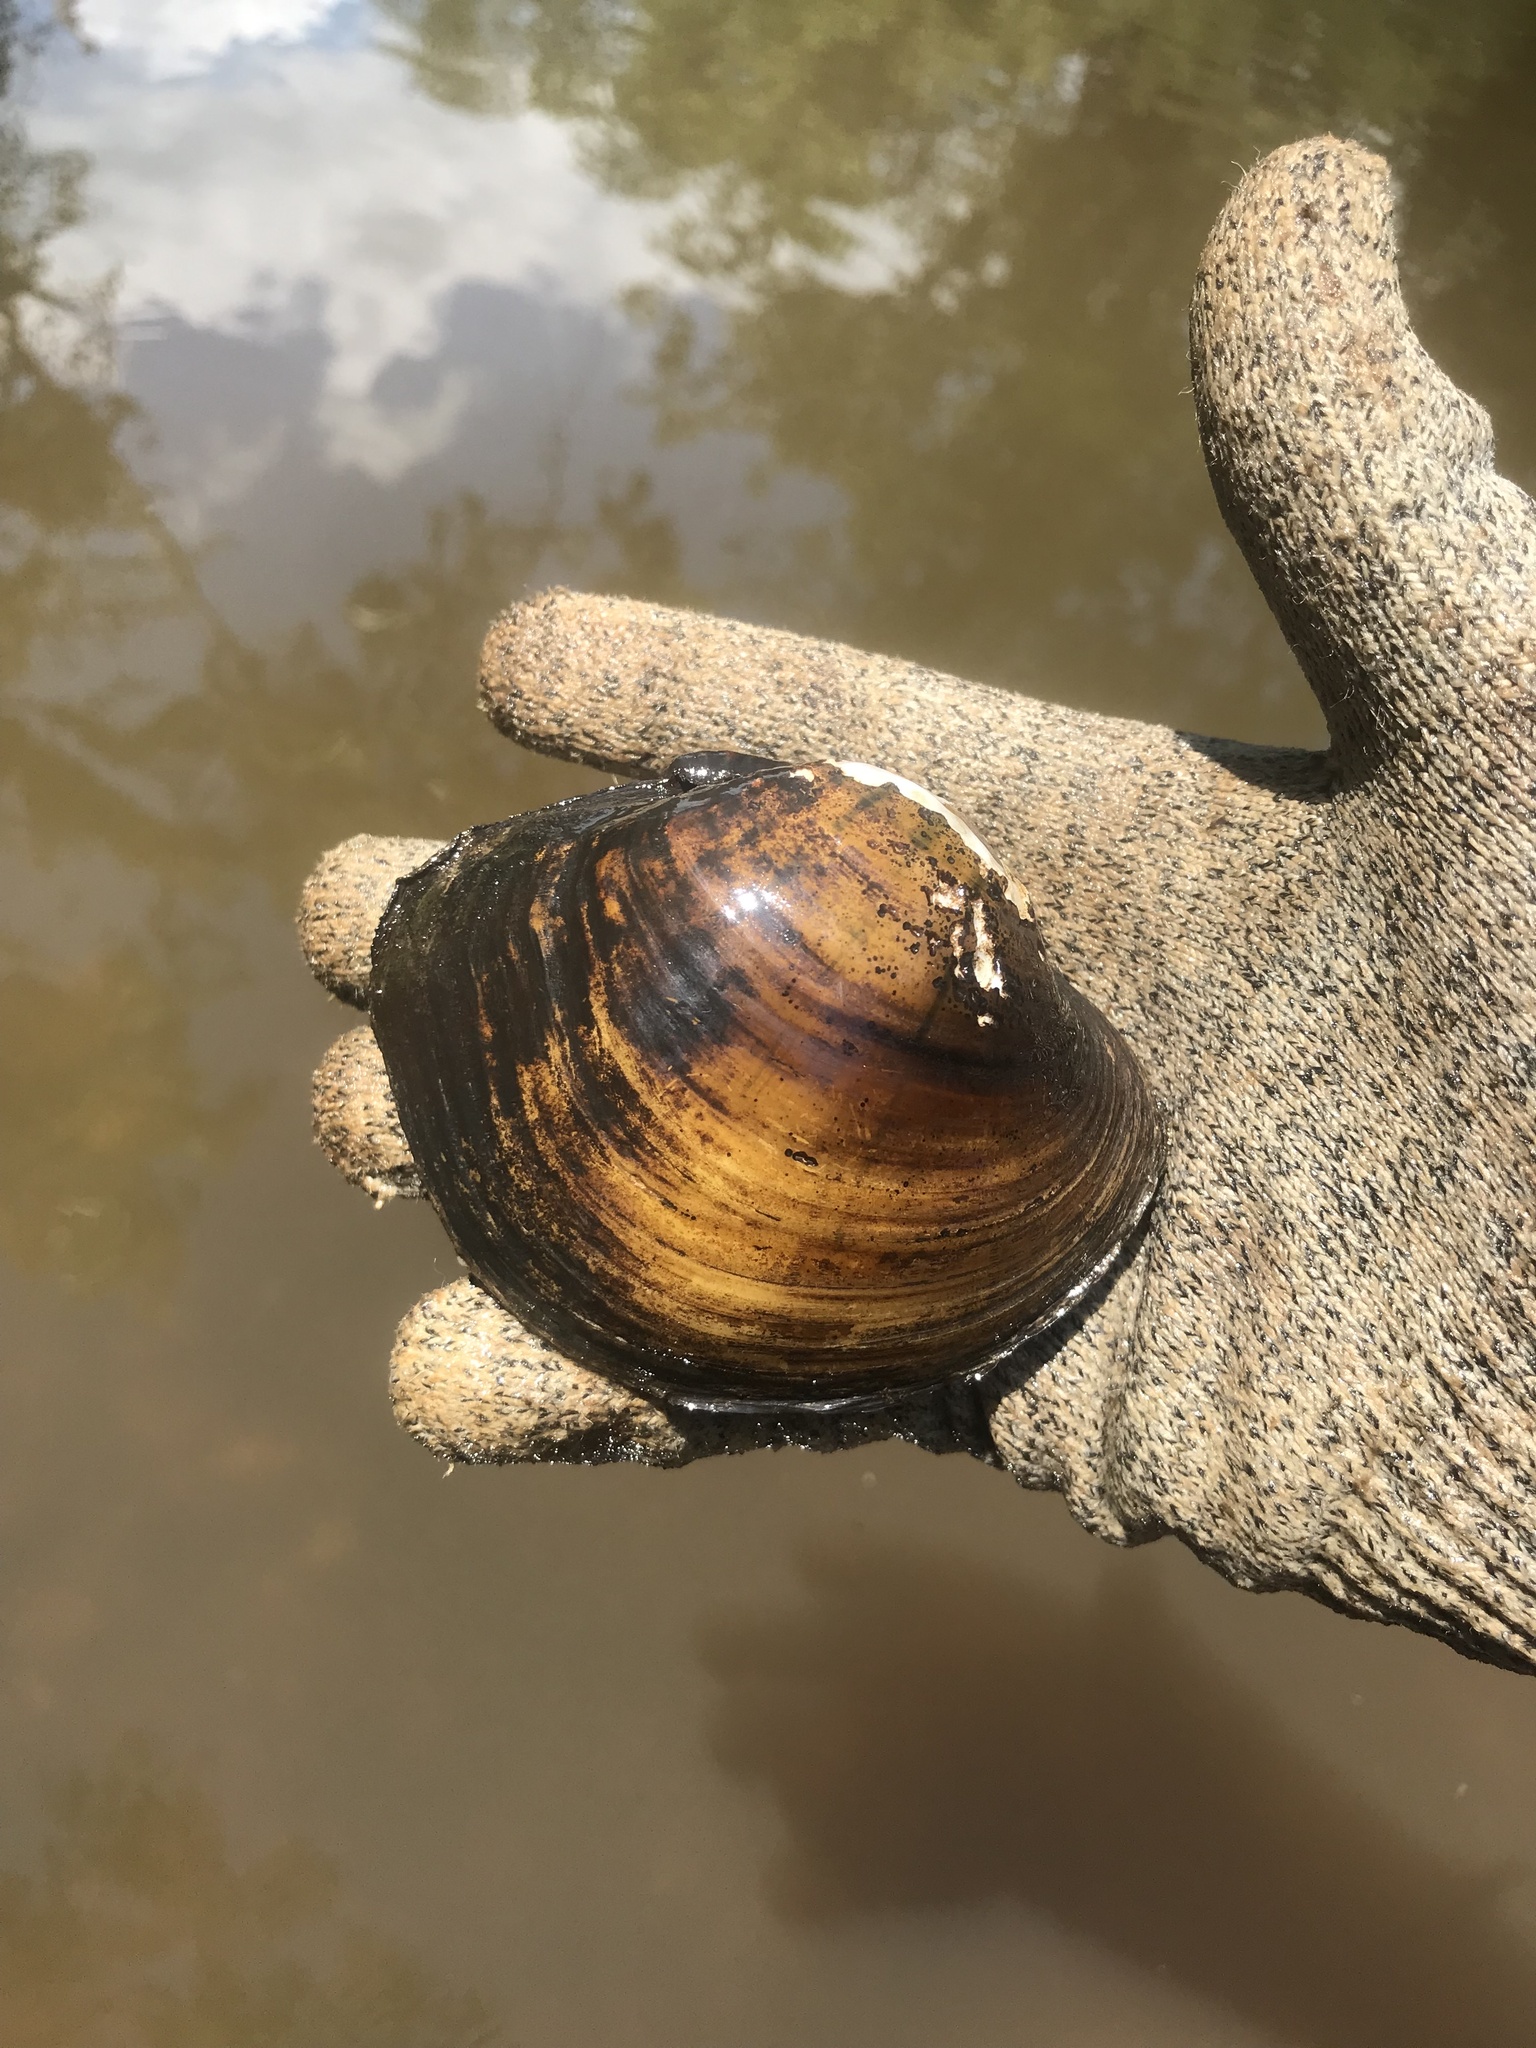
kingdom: Animalia
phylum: Mollusca
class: Bivalvia
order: Unionida
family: Unionidae
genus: Lampsilis
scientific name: Lampsilis ornata
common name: Southern pocketbook
